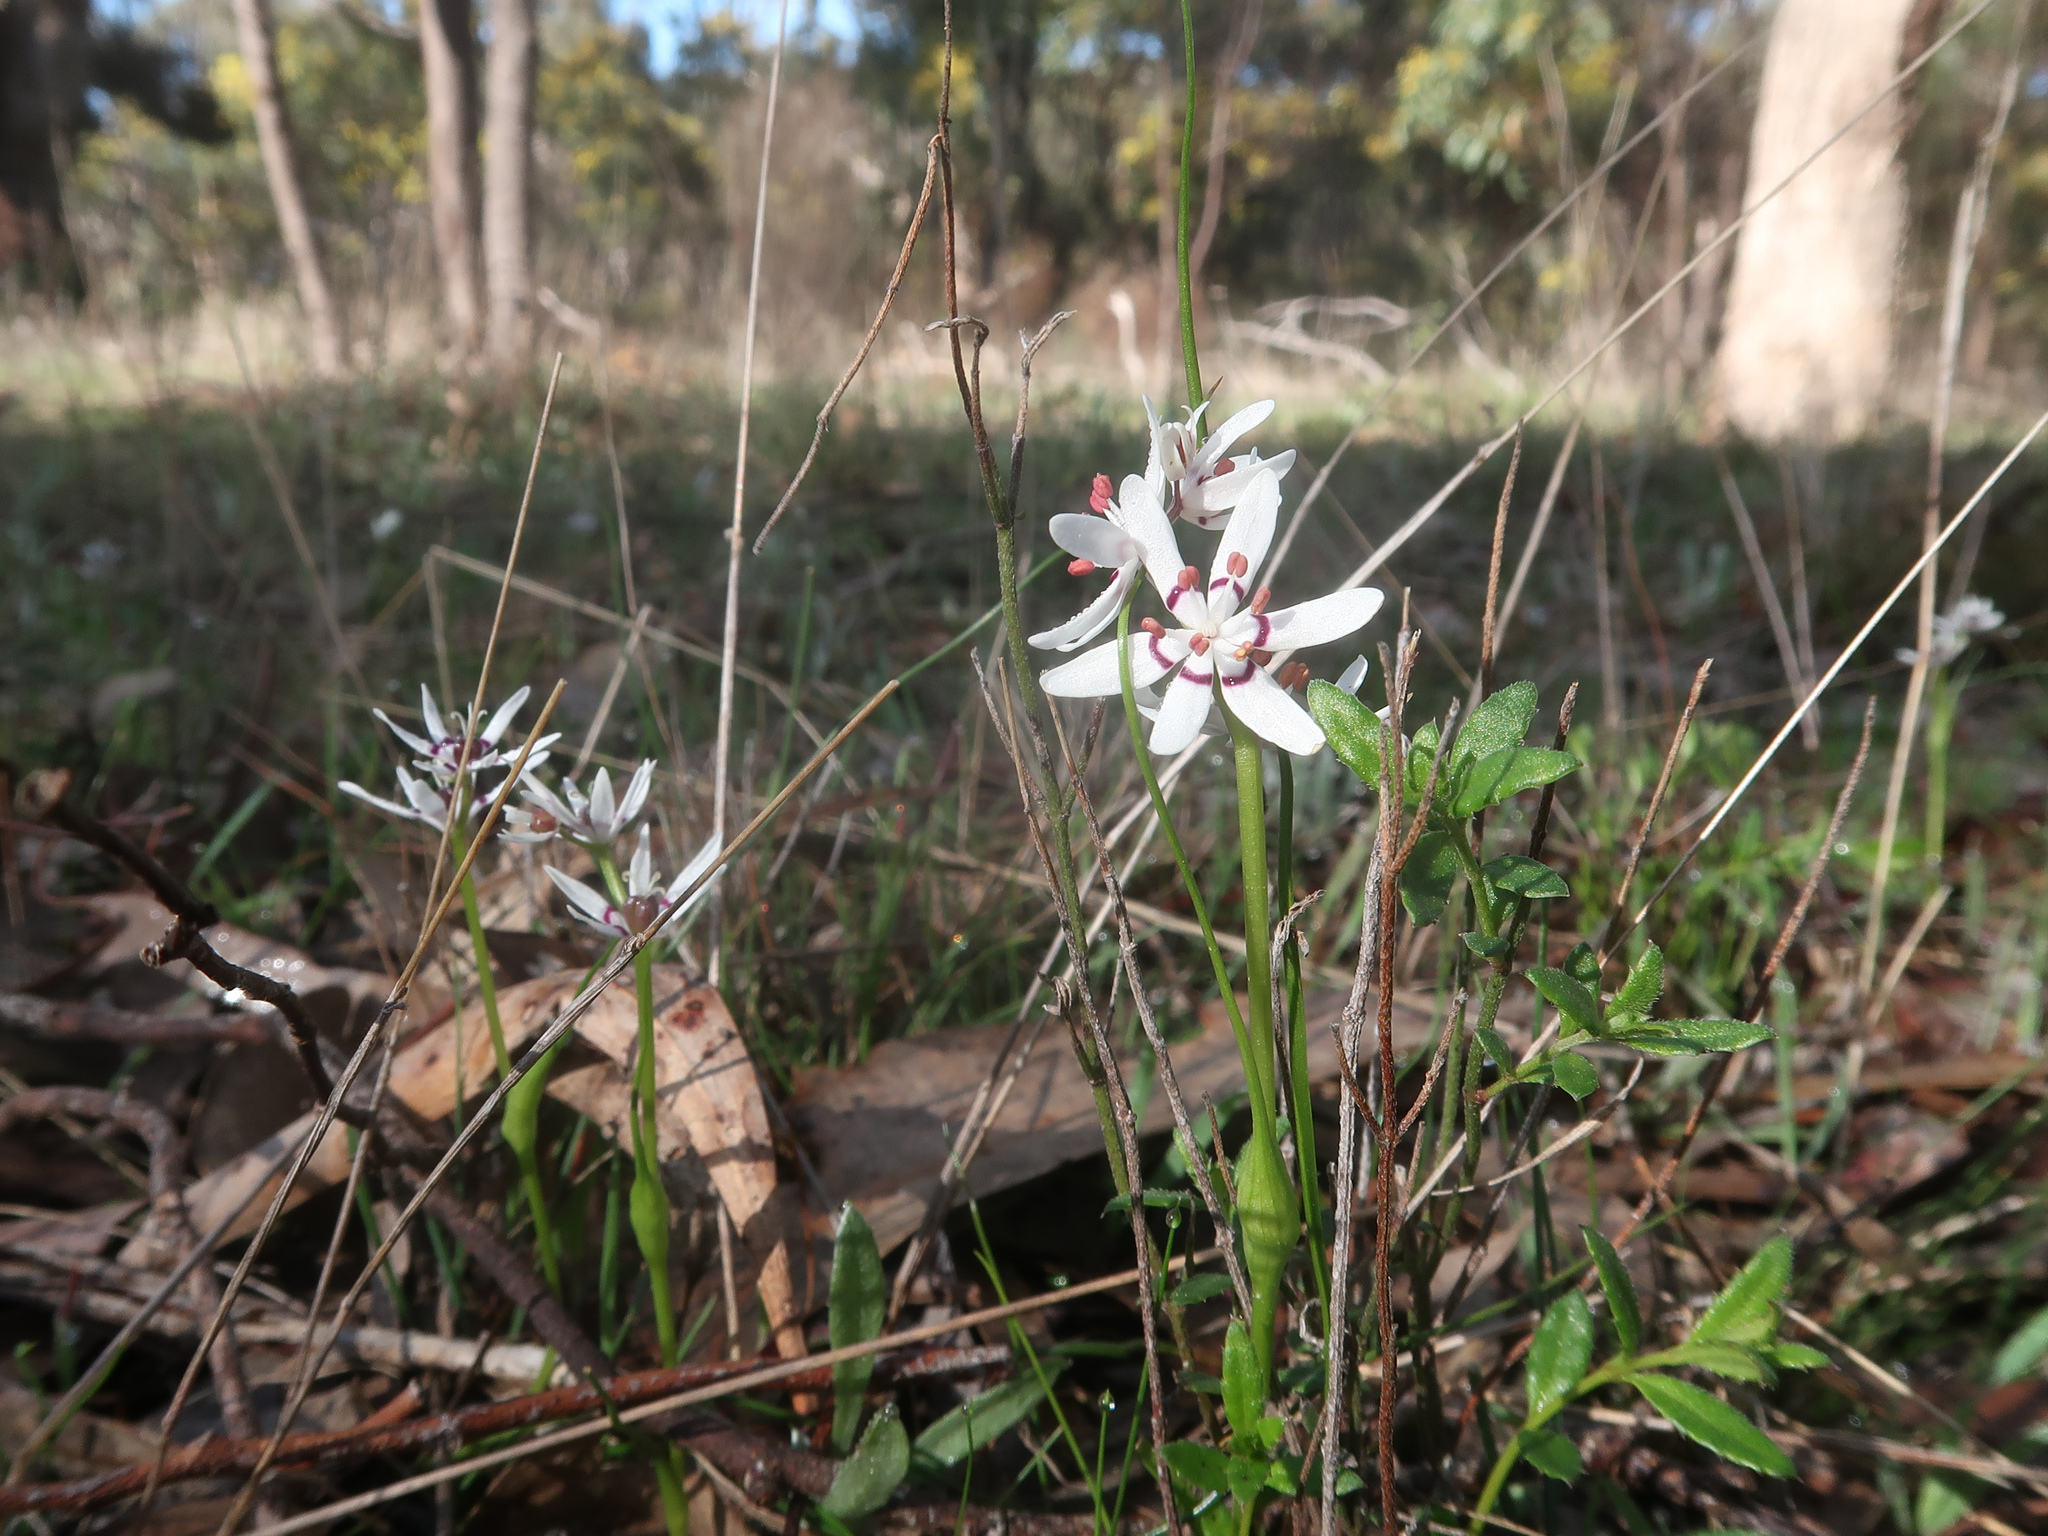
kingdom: Plantae
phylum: Tracheophyta
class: Liliopsida
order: Liliales
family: Colchicaceae
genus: Wurmbea
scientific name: Wurmbea dioica
